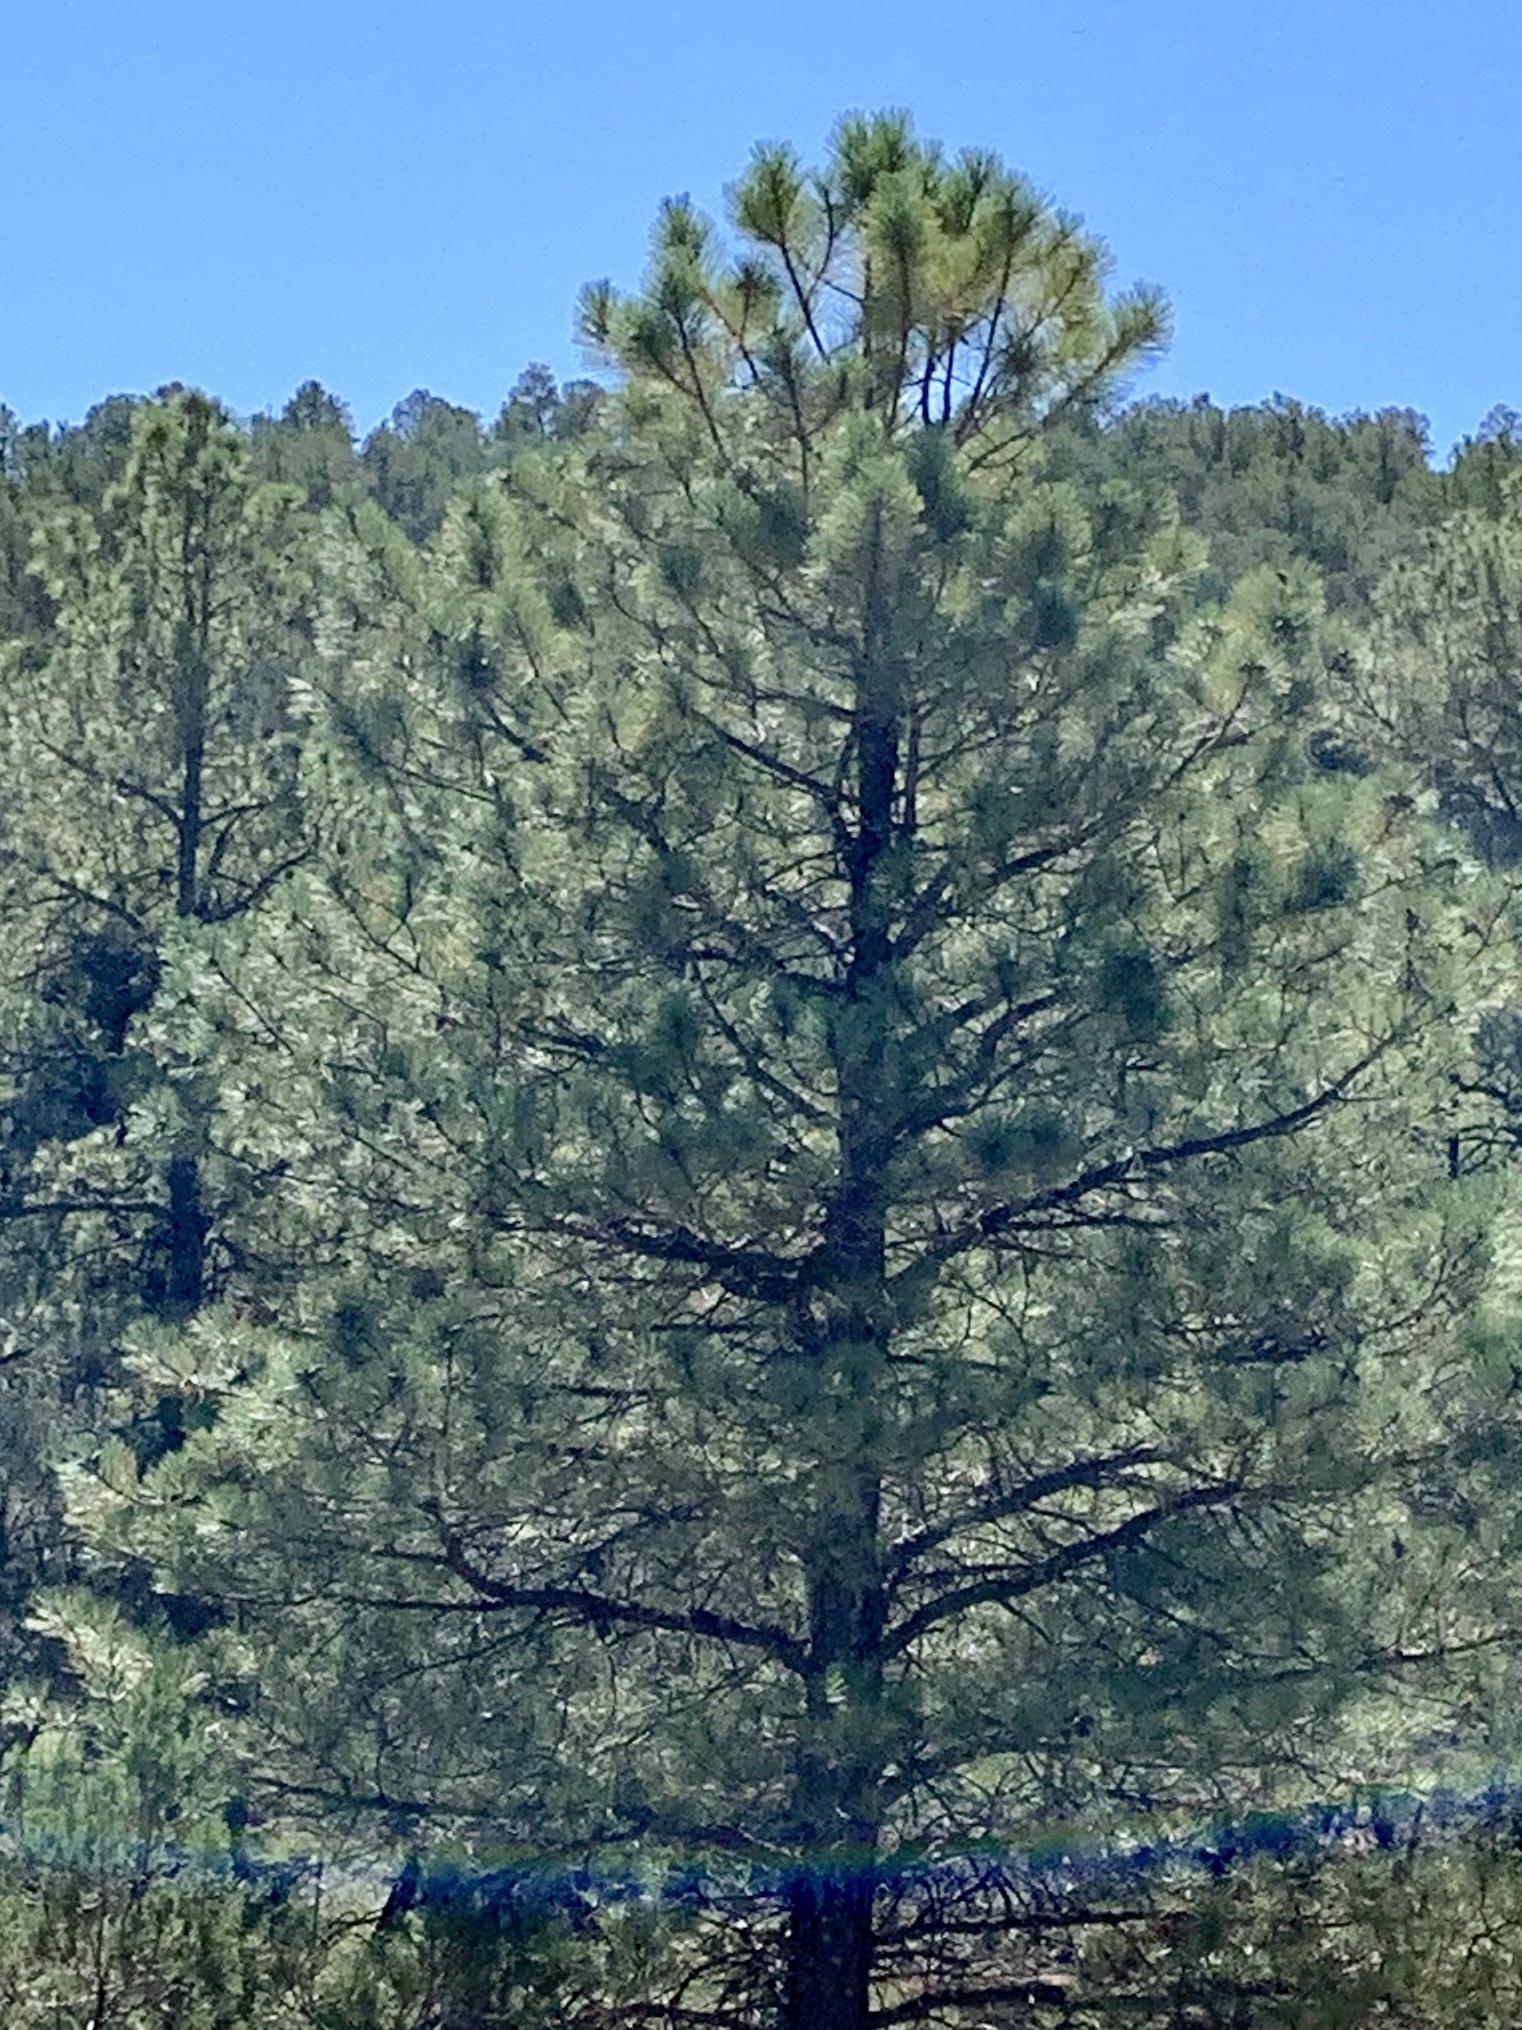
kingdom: Plantae
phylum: Tracheophyta
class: Pinopsida
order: Pinales
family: Pinaceae
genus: Pinus
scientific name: Pinus ponderosa
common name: Western yellow-pine
